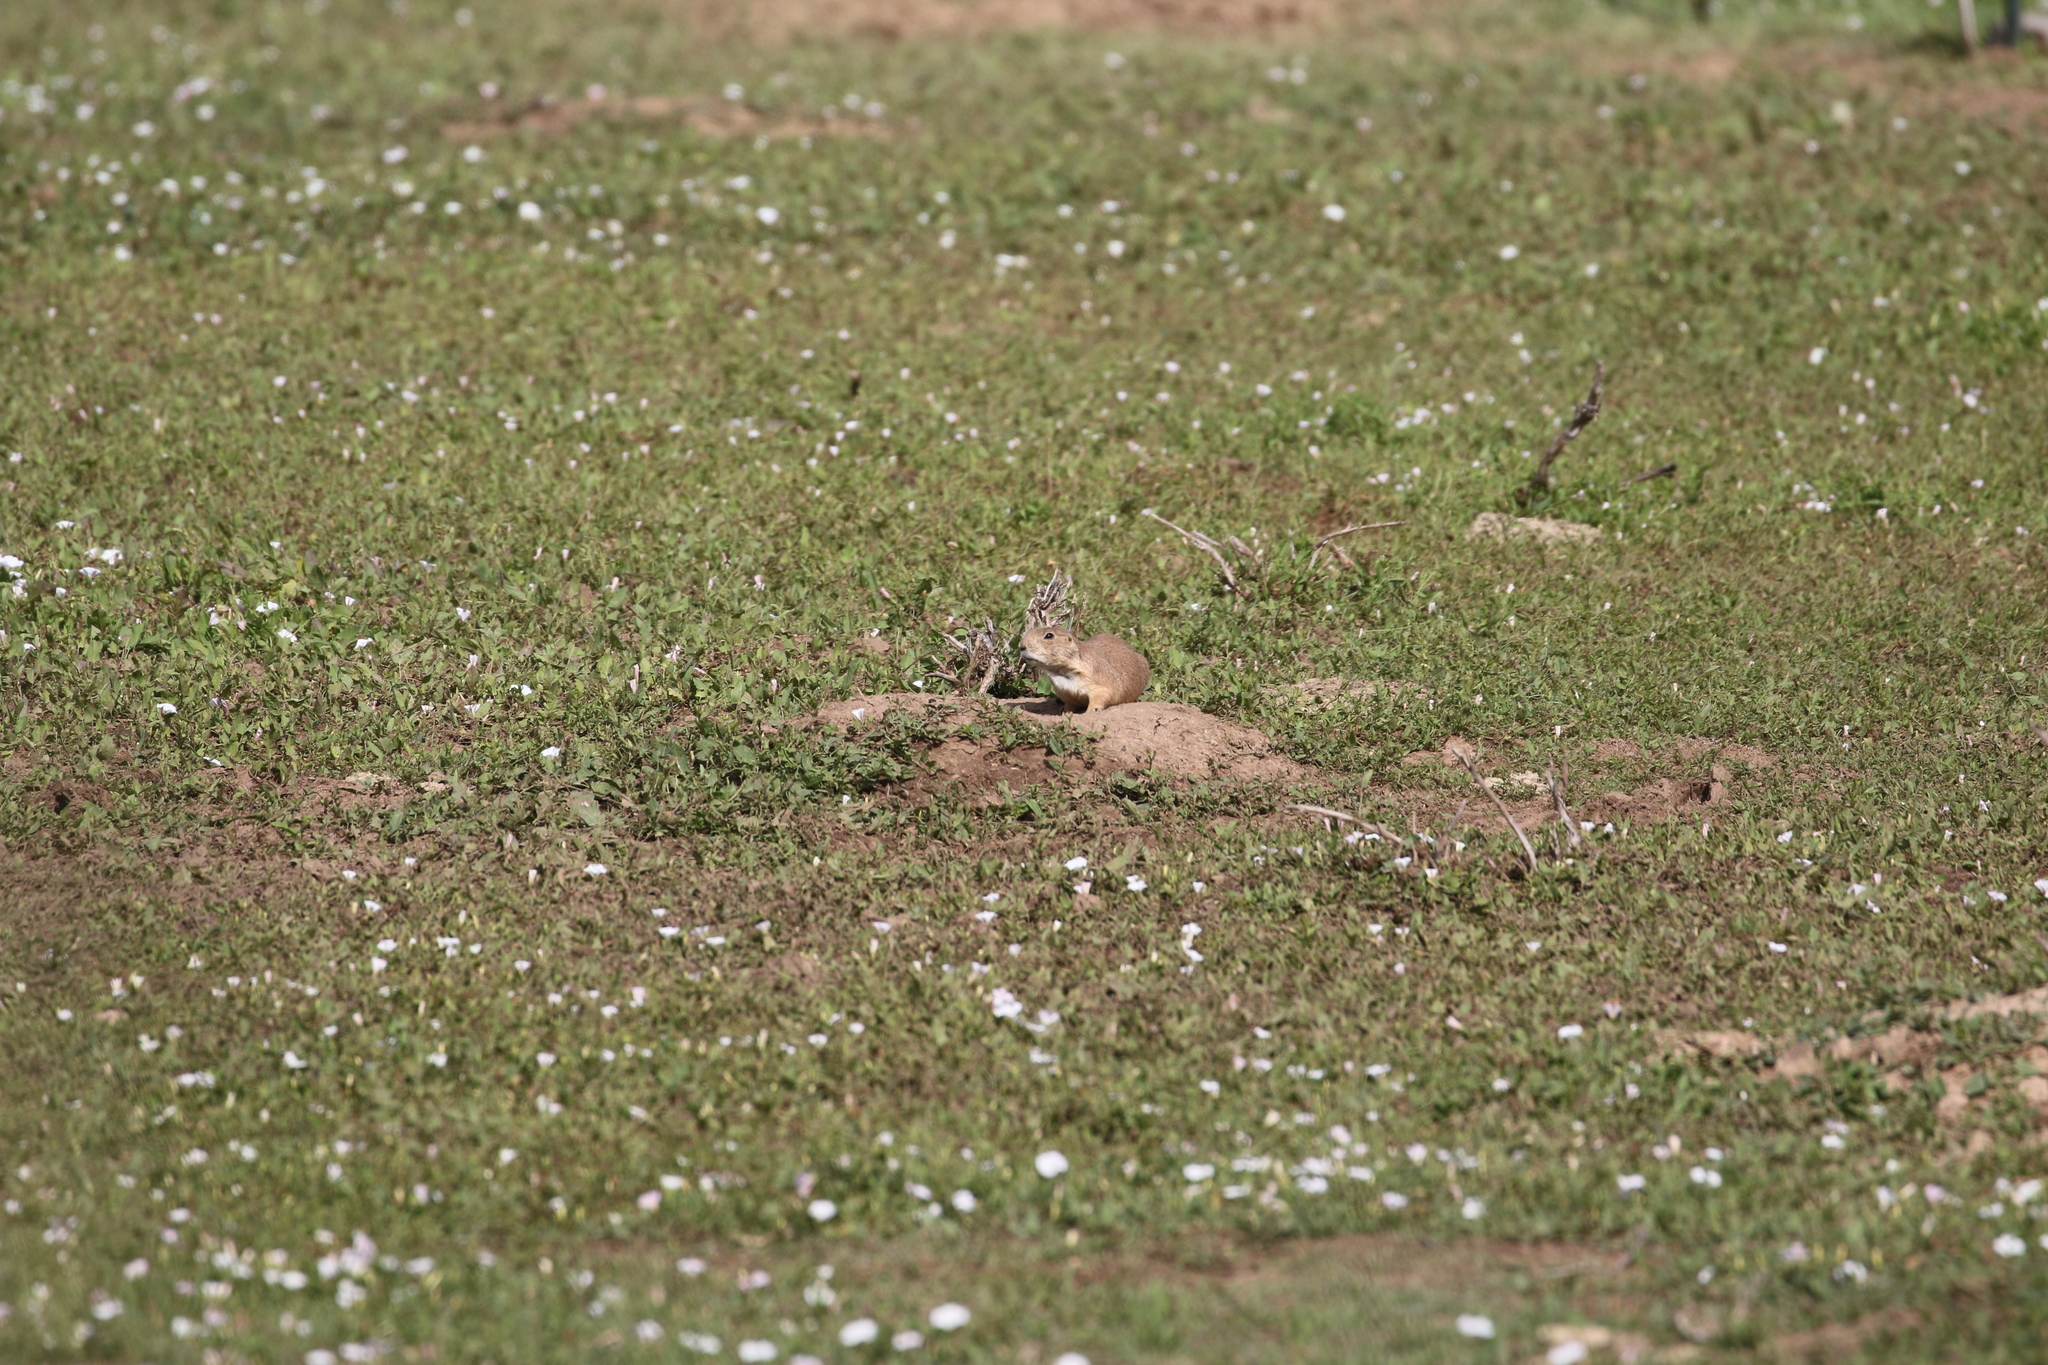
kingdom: Animalia
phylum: Chordata
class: Mammalia
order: Rodentia
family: Sciuridae
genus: Cynomys
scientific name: Cynomys ludovicianus
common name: Black-tailed prairie dog
